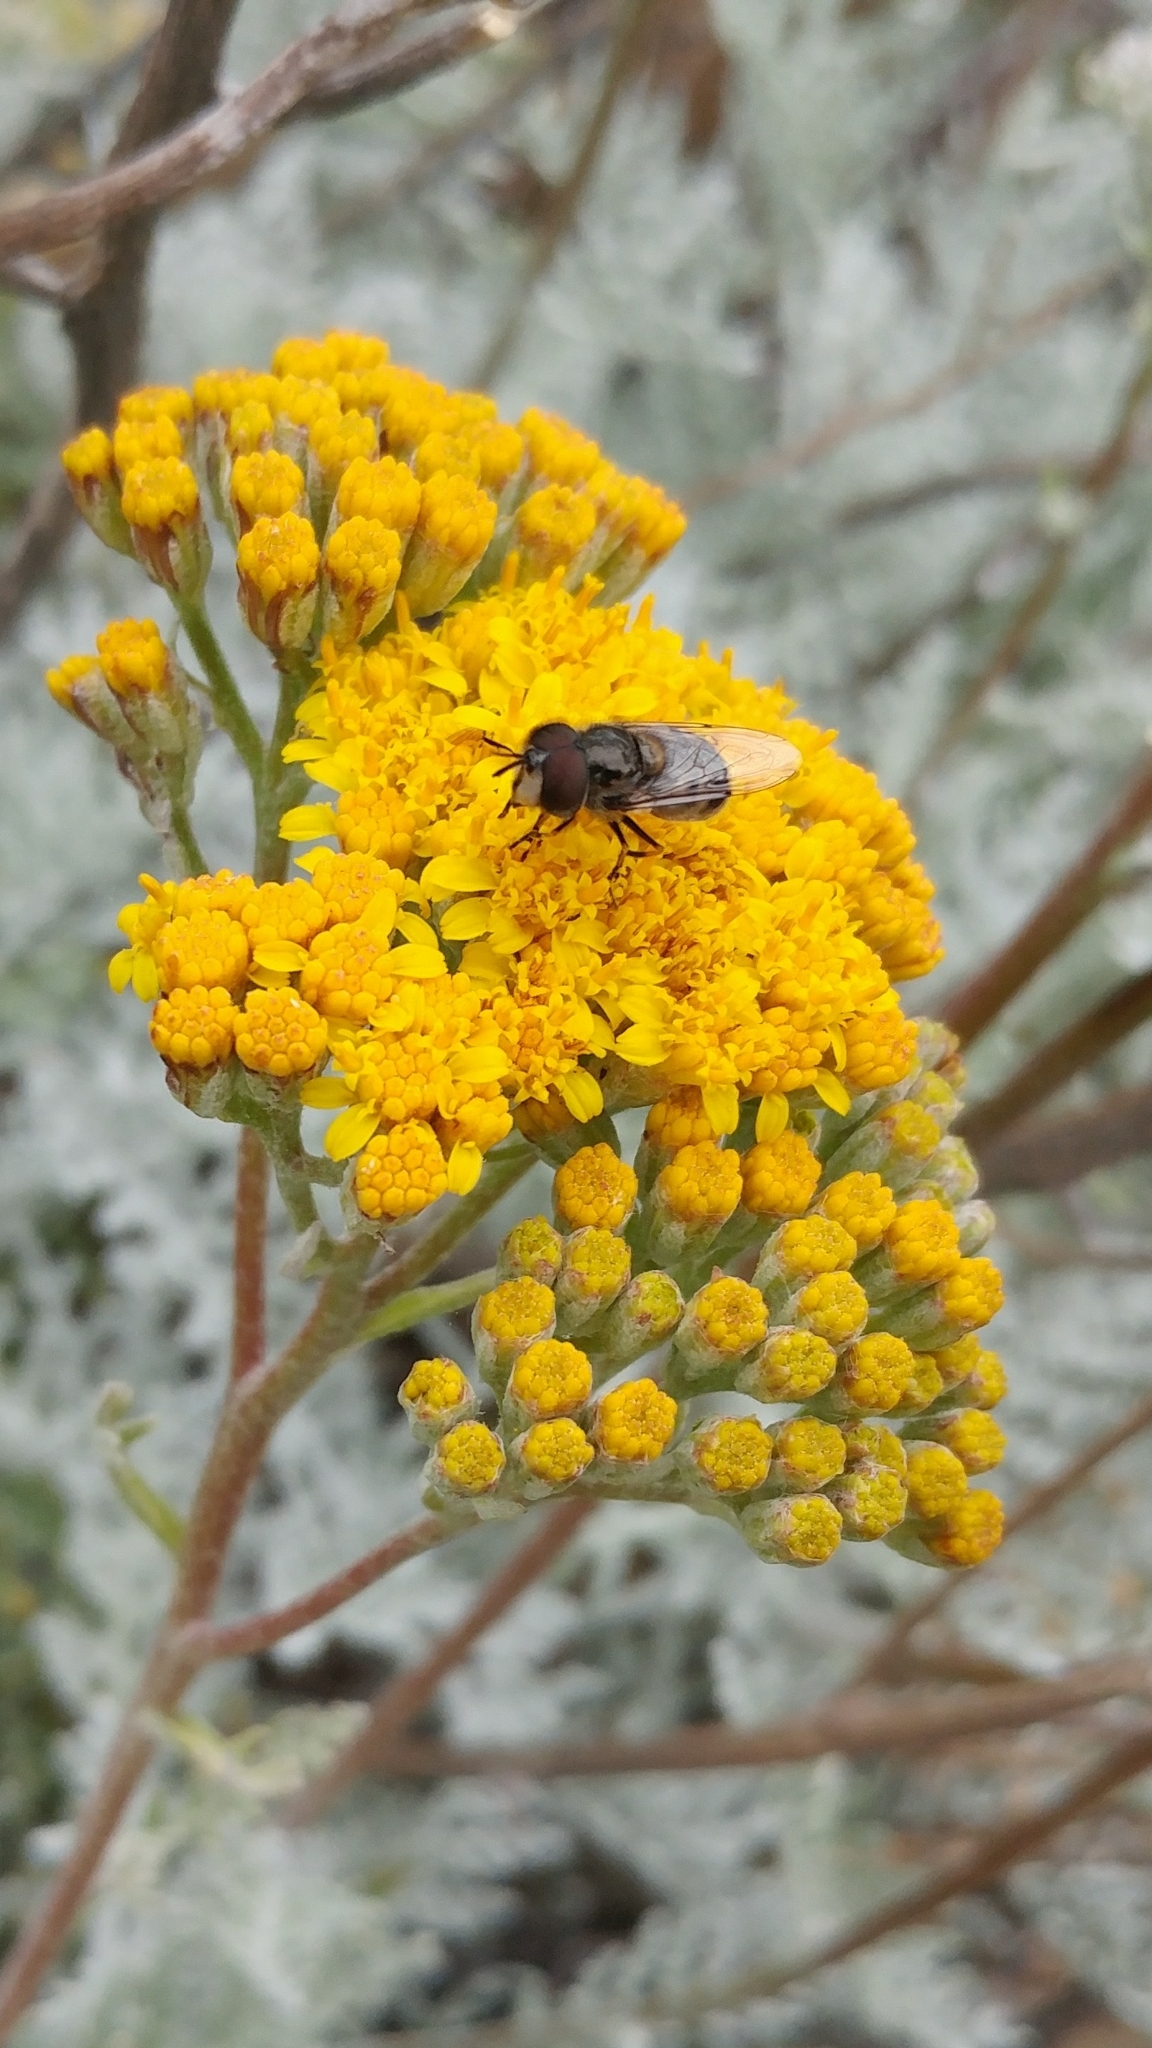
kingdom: Animalia
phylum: Arthropoda
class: Insecta
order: Diptera
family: Syrphidae
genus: Copestylum
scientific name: Copestylum lentum
